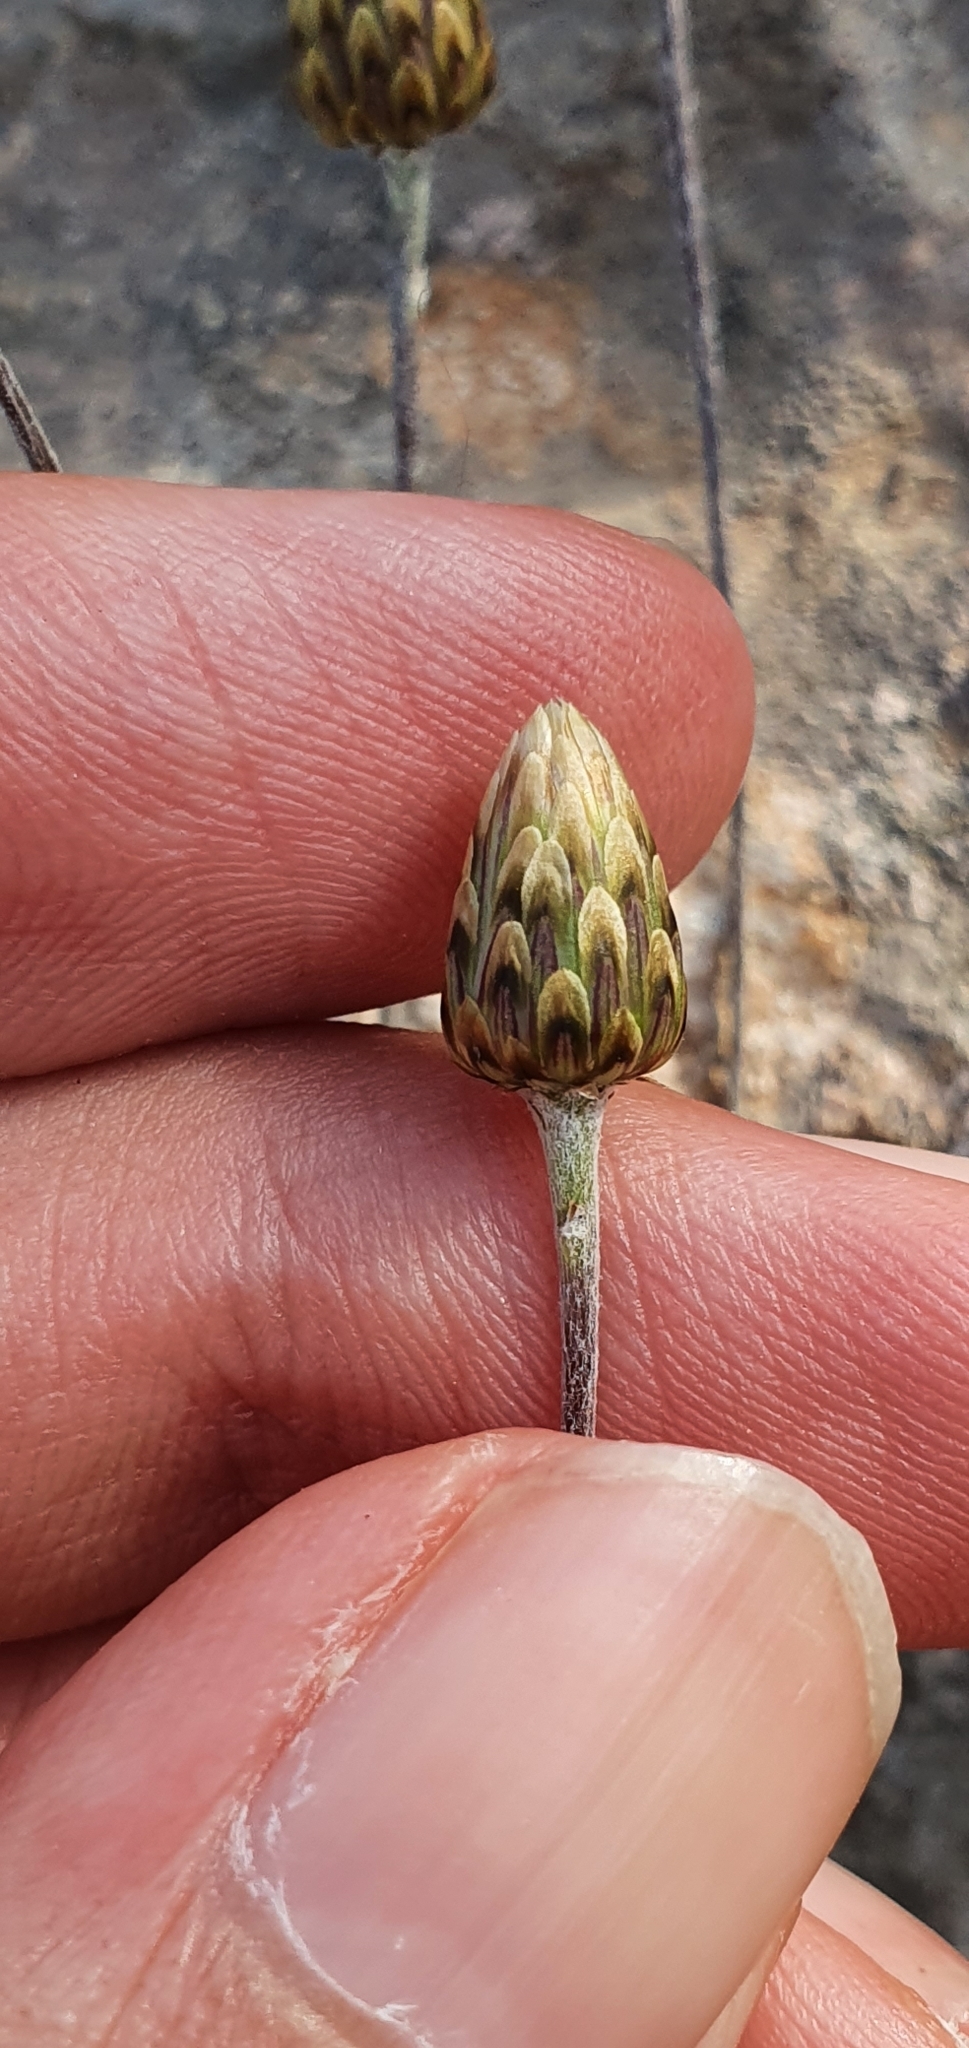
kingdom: Plantae
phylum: Tracheophyta
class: Magnoliopsida
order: Asterales
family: Asteraceae
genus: Phagnalon
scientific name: Phagnalon rupestre
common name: Rock phagnalon
